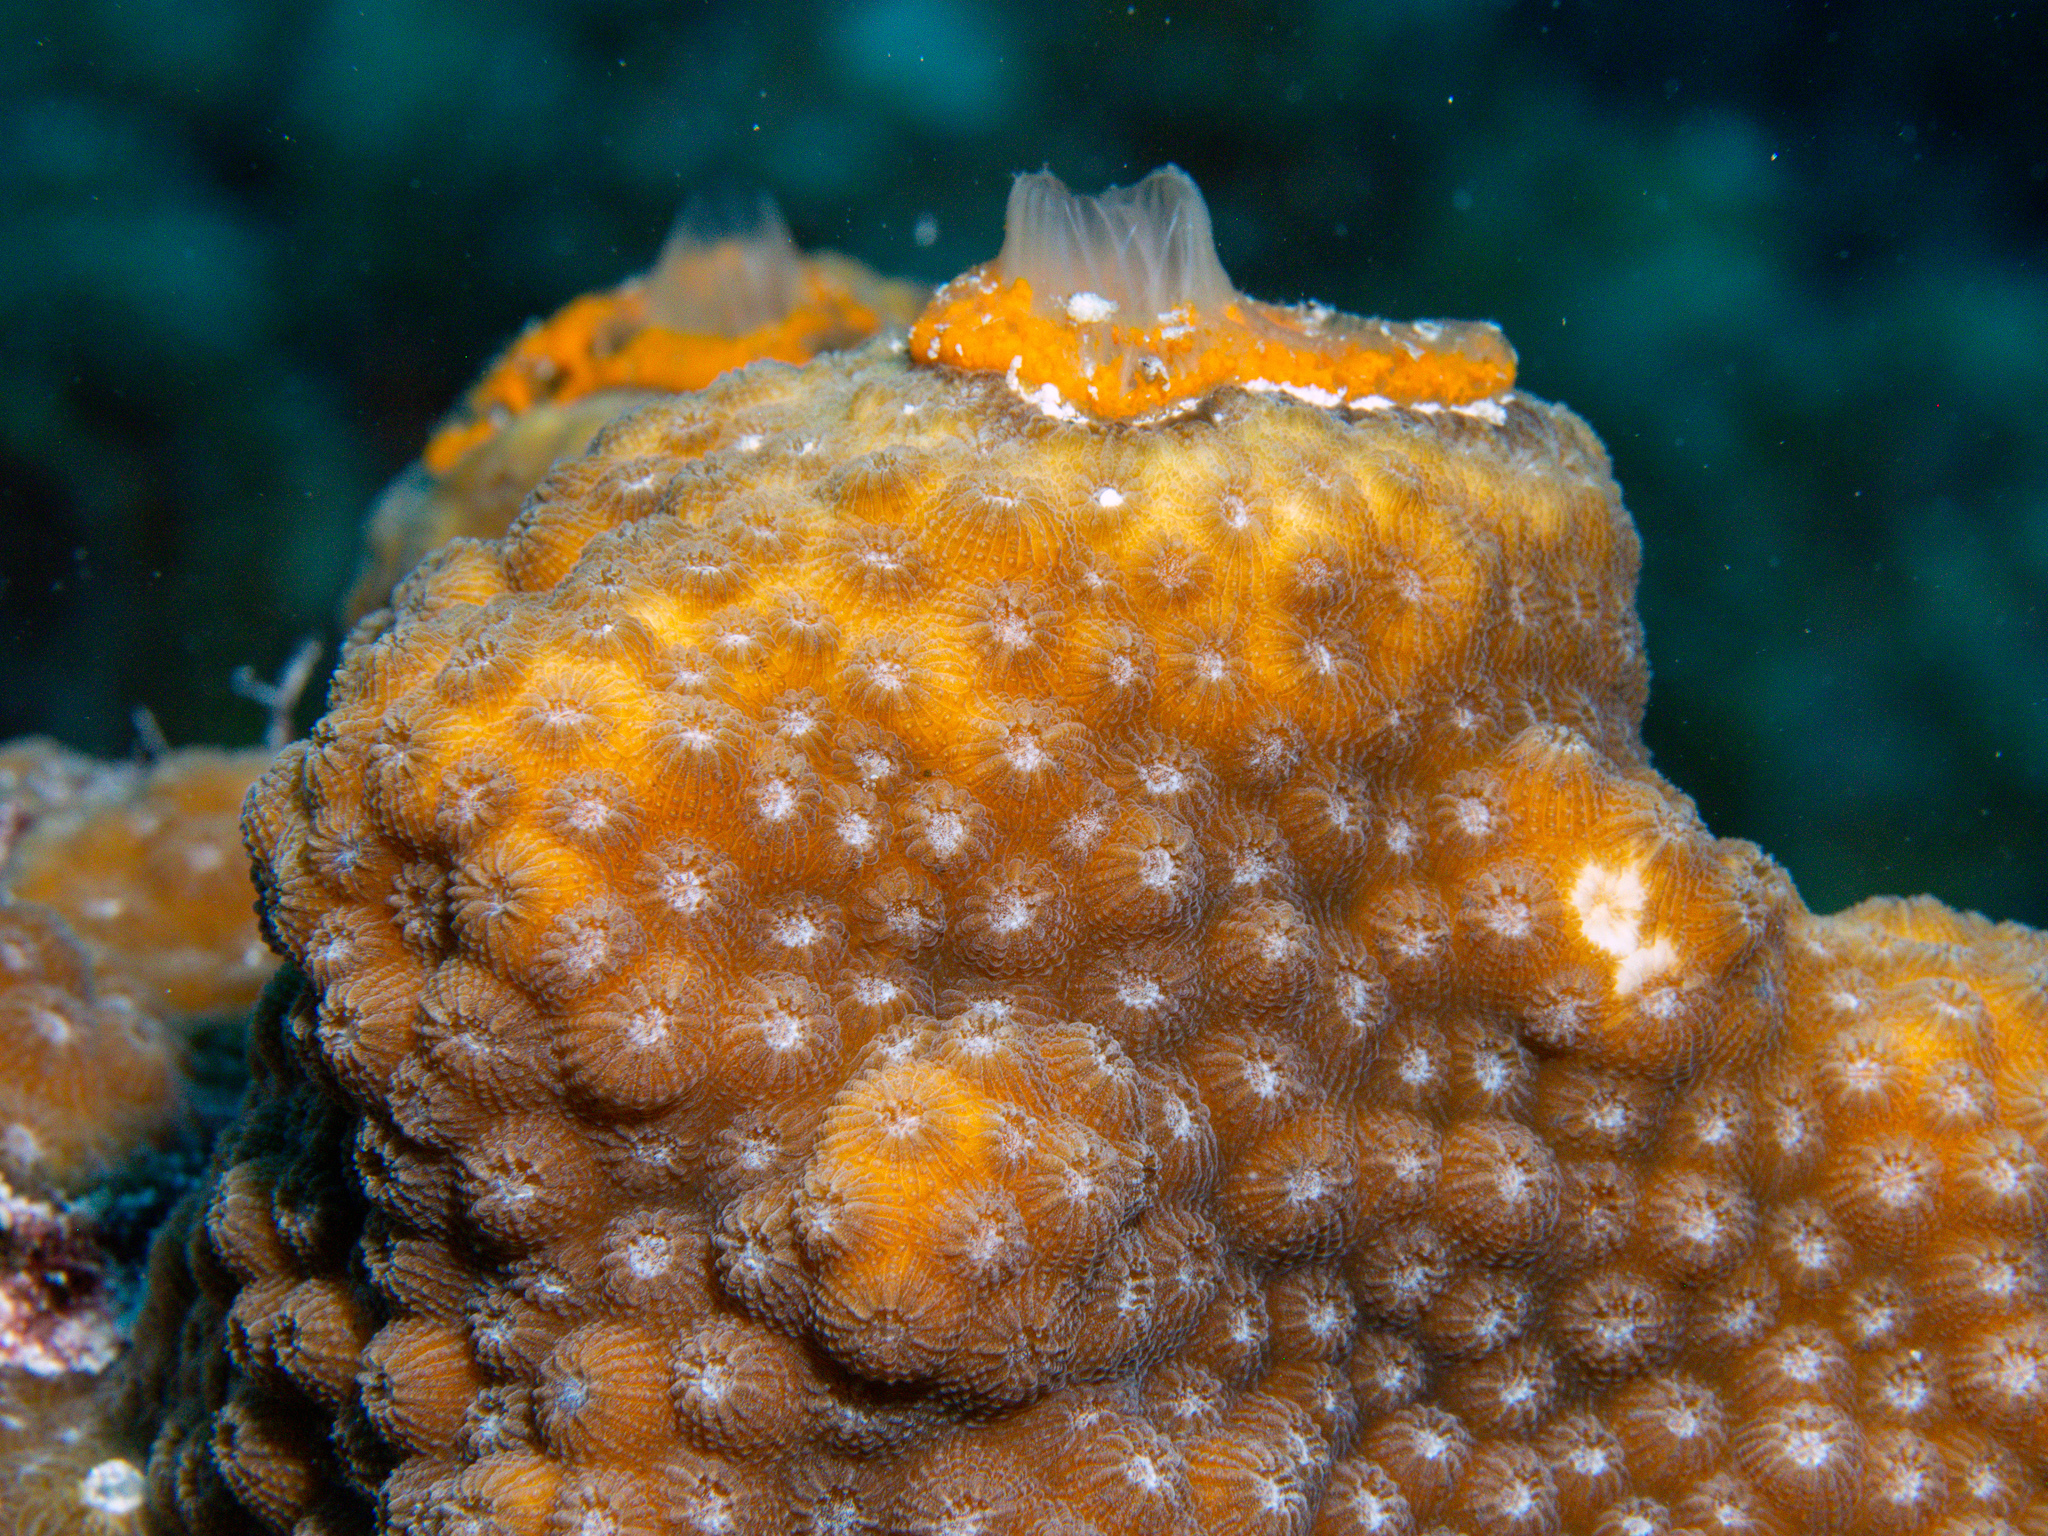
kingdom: Animalia
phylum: Cnidaria
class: Anthozoa
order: Scleractinia
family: Merulinidae
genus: Orbicella
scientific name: Orbicella faveolata
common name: Mountainous star coral
